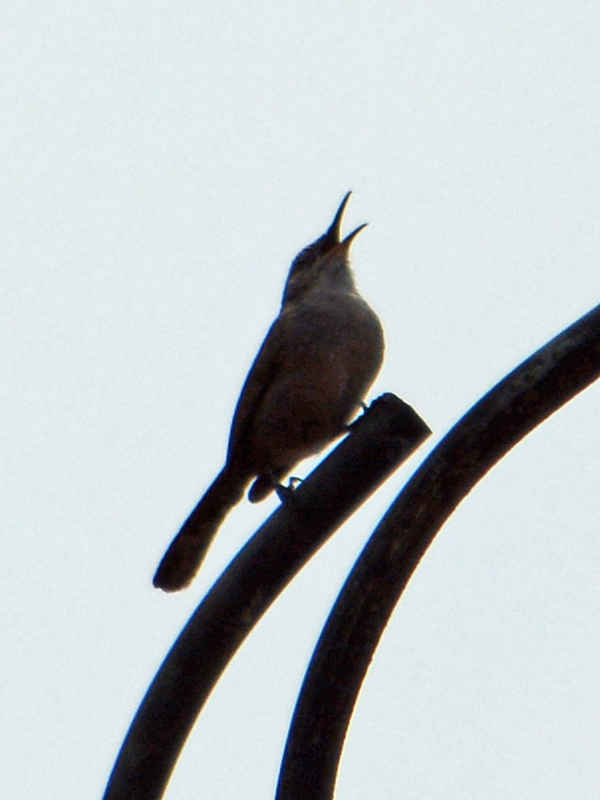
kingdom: Animalia
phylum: Chordata
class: Aves
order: Passeriformes
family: Troglodytidae
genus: Thryomanes
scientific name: Thryomanes bewickii
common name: Bewick's wren
